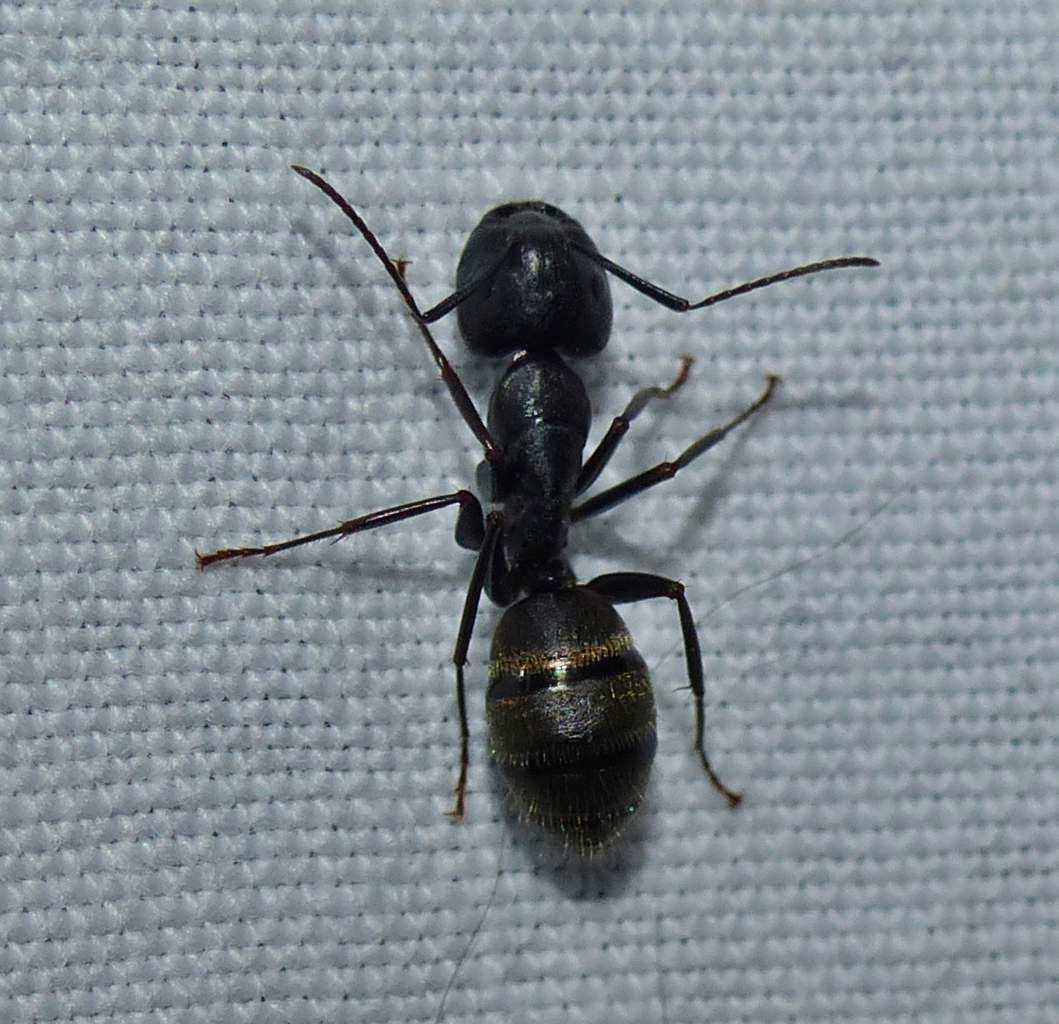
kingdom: Animalia
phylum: Arthropoda
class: Insecta
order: Hymenoptera
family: Formicidae
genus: Camponotus
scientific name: Camponotus pennsylvanicus
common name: Black carpenter ant
